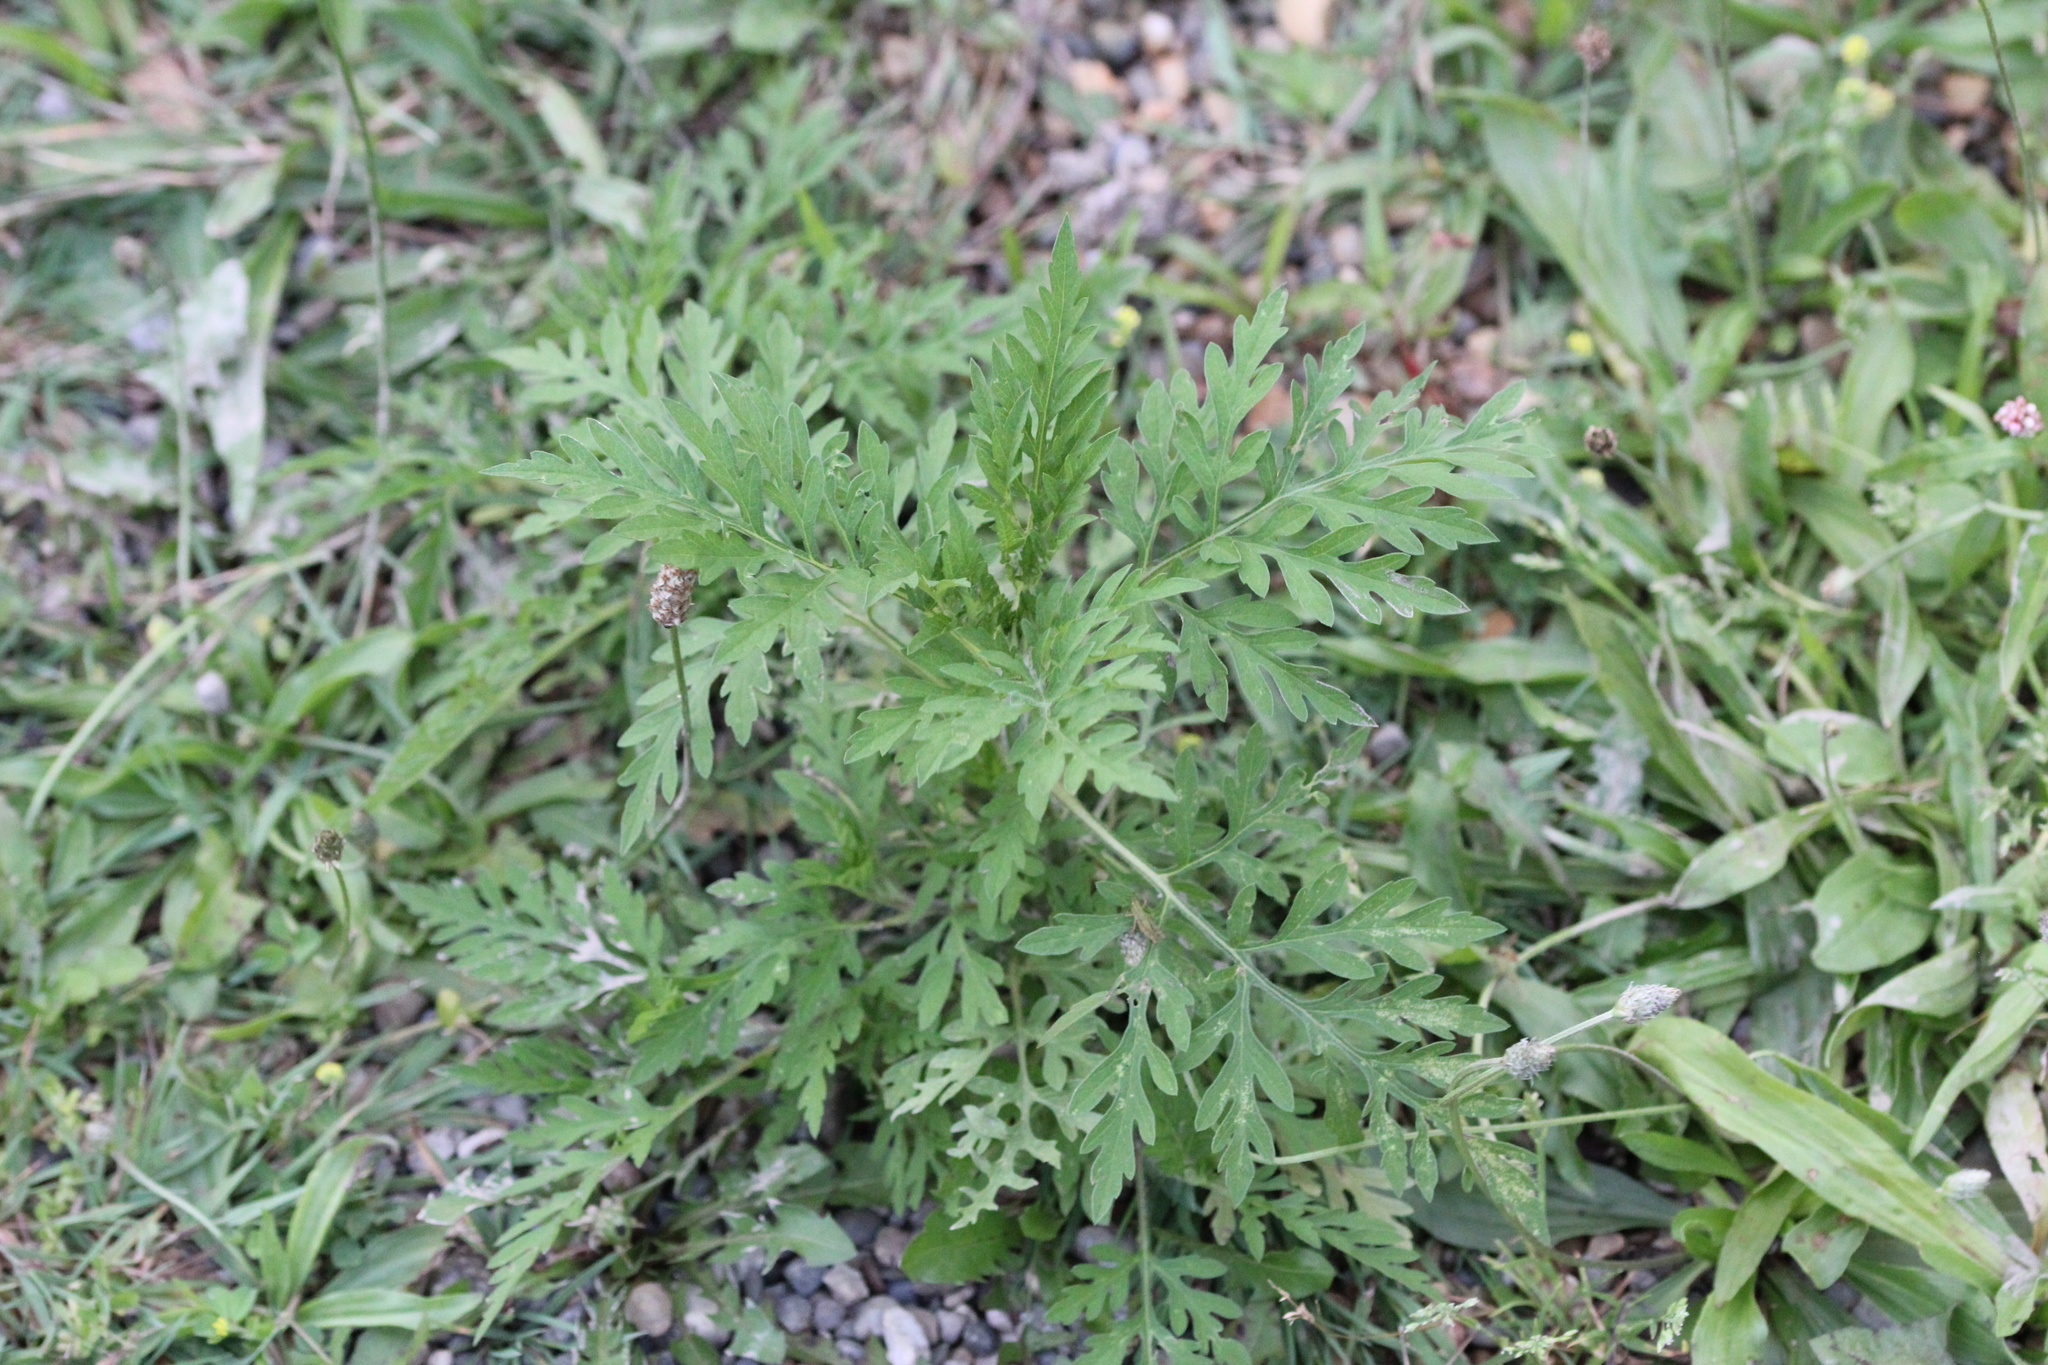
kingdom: Plantae
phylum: Tracheophyta
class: Magnoliopsida
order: Asterales
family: Asteraceae
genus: Ambrosia
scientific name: Ambrosia artemisiifolia
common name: Annual ragweed
